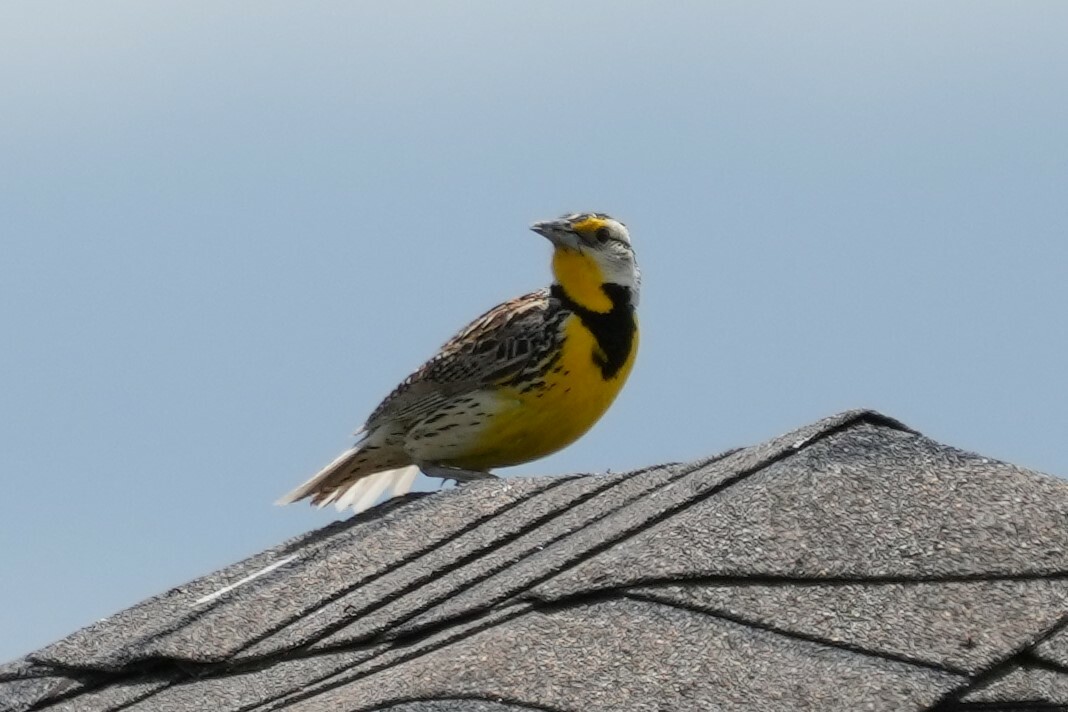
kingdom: Animalia
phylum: Chordata
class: Aves
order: Passeriformes
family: Icteridae
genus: Sturnella
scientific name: Sturnella magna
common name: Eastern meadowlark
